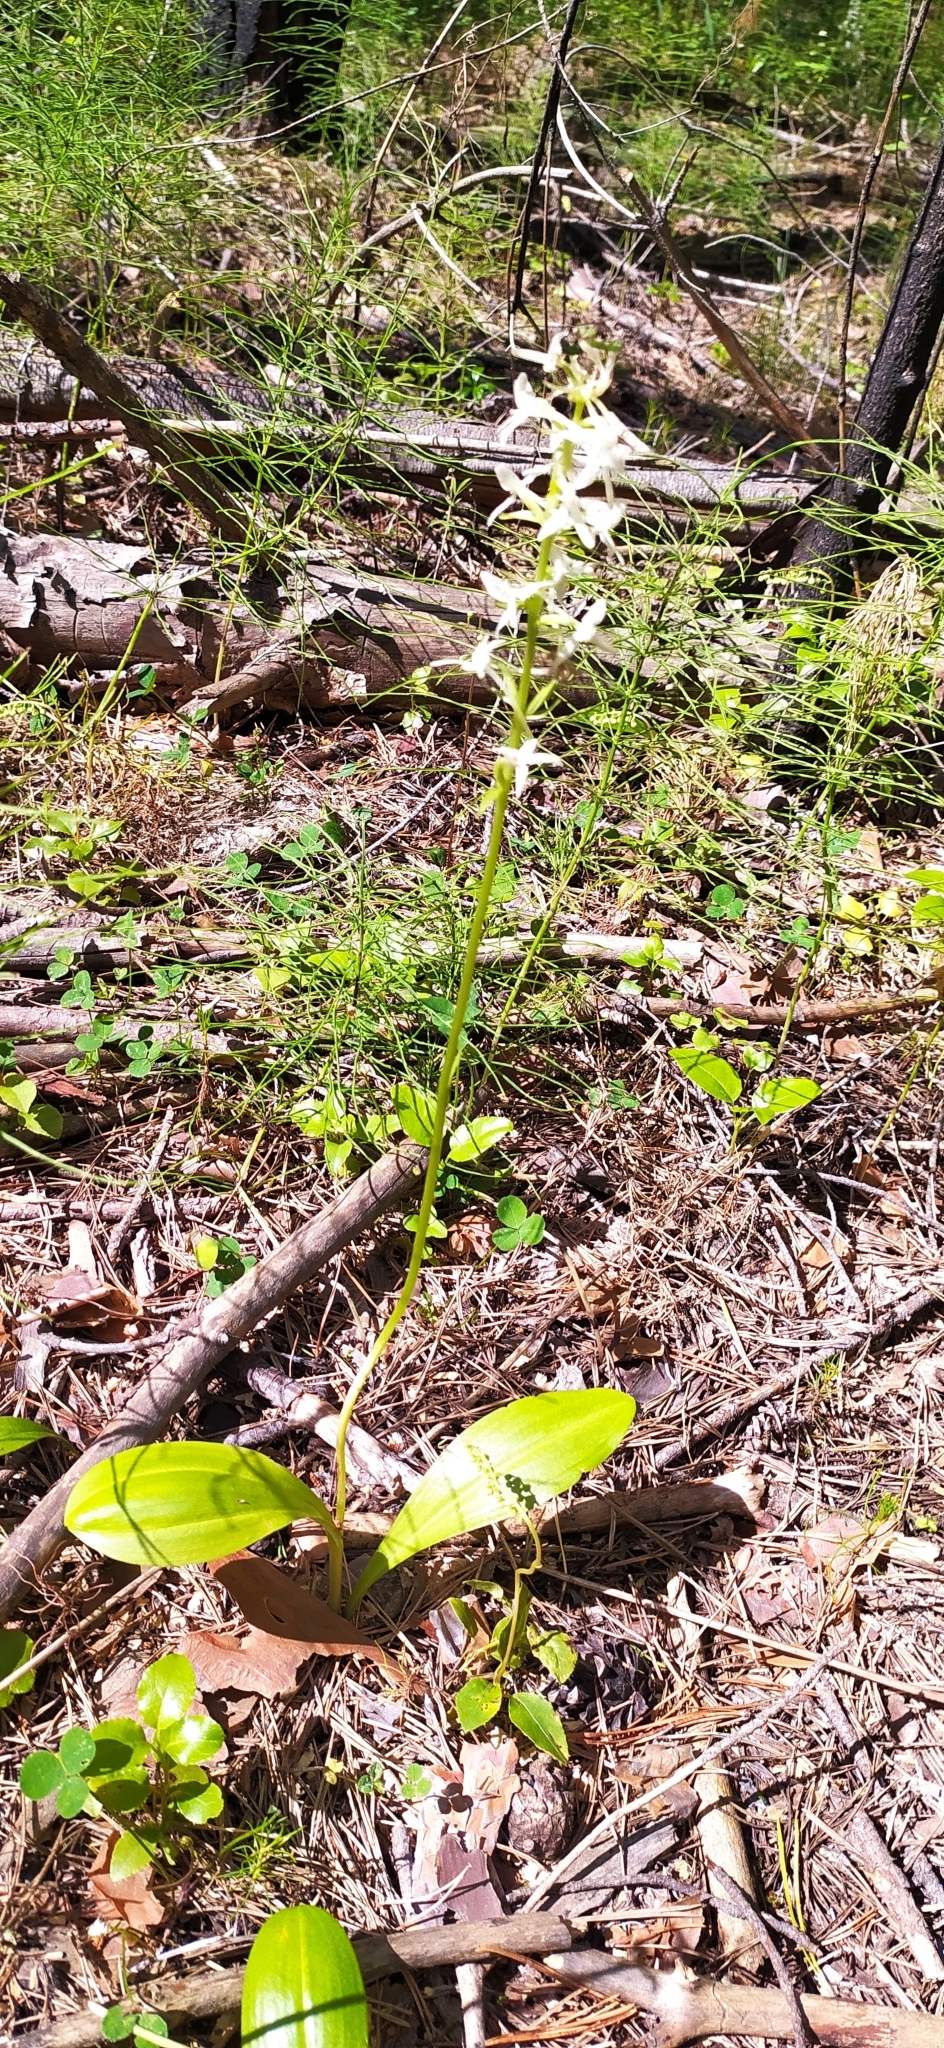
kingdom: Plantae
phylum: Tracheophyta
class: Liliopsida
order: Asparagales
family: Orchidaceae
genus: Platanthera
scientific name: Platanthera bifolia
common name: Lesser butterfly-orchid
